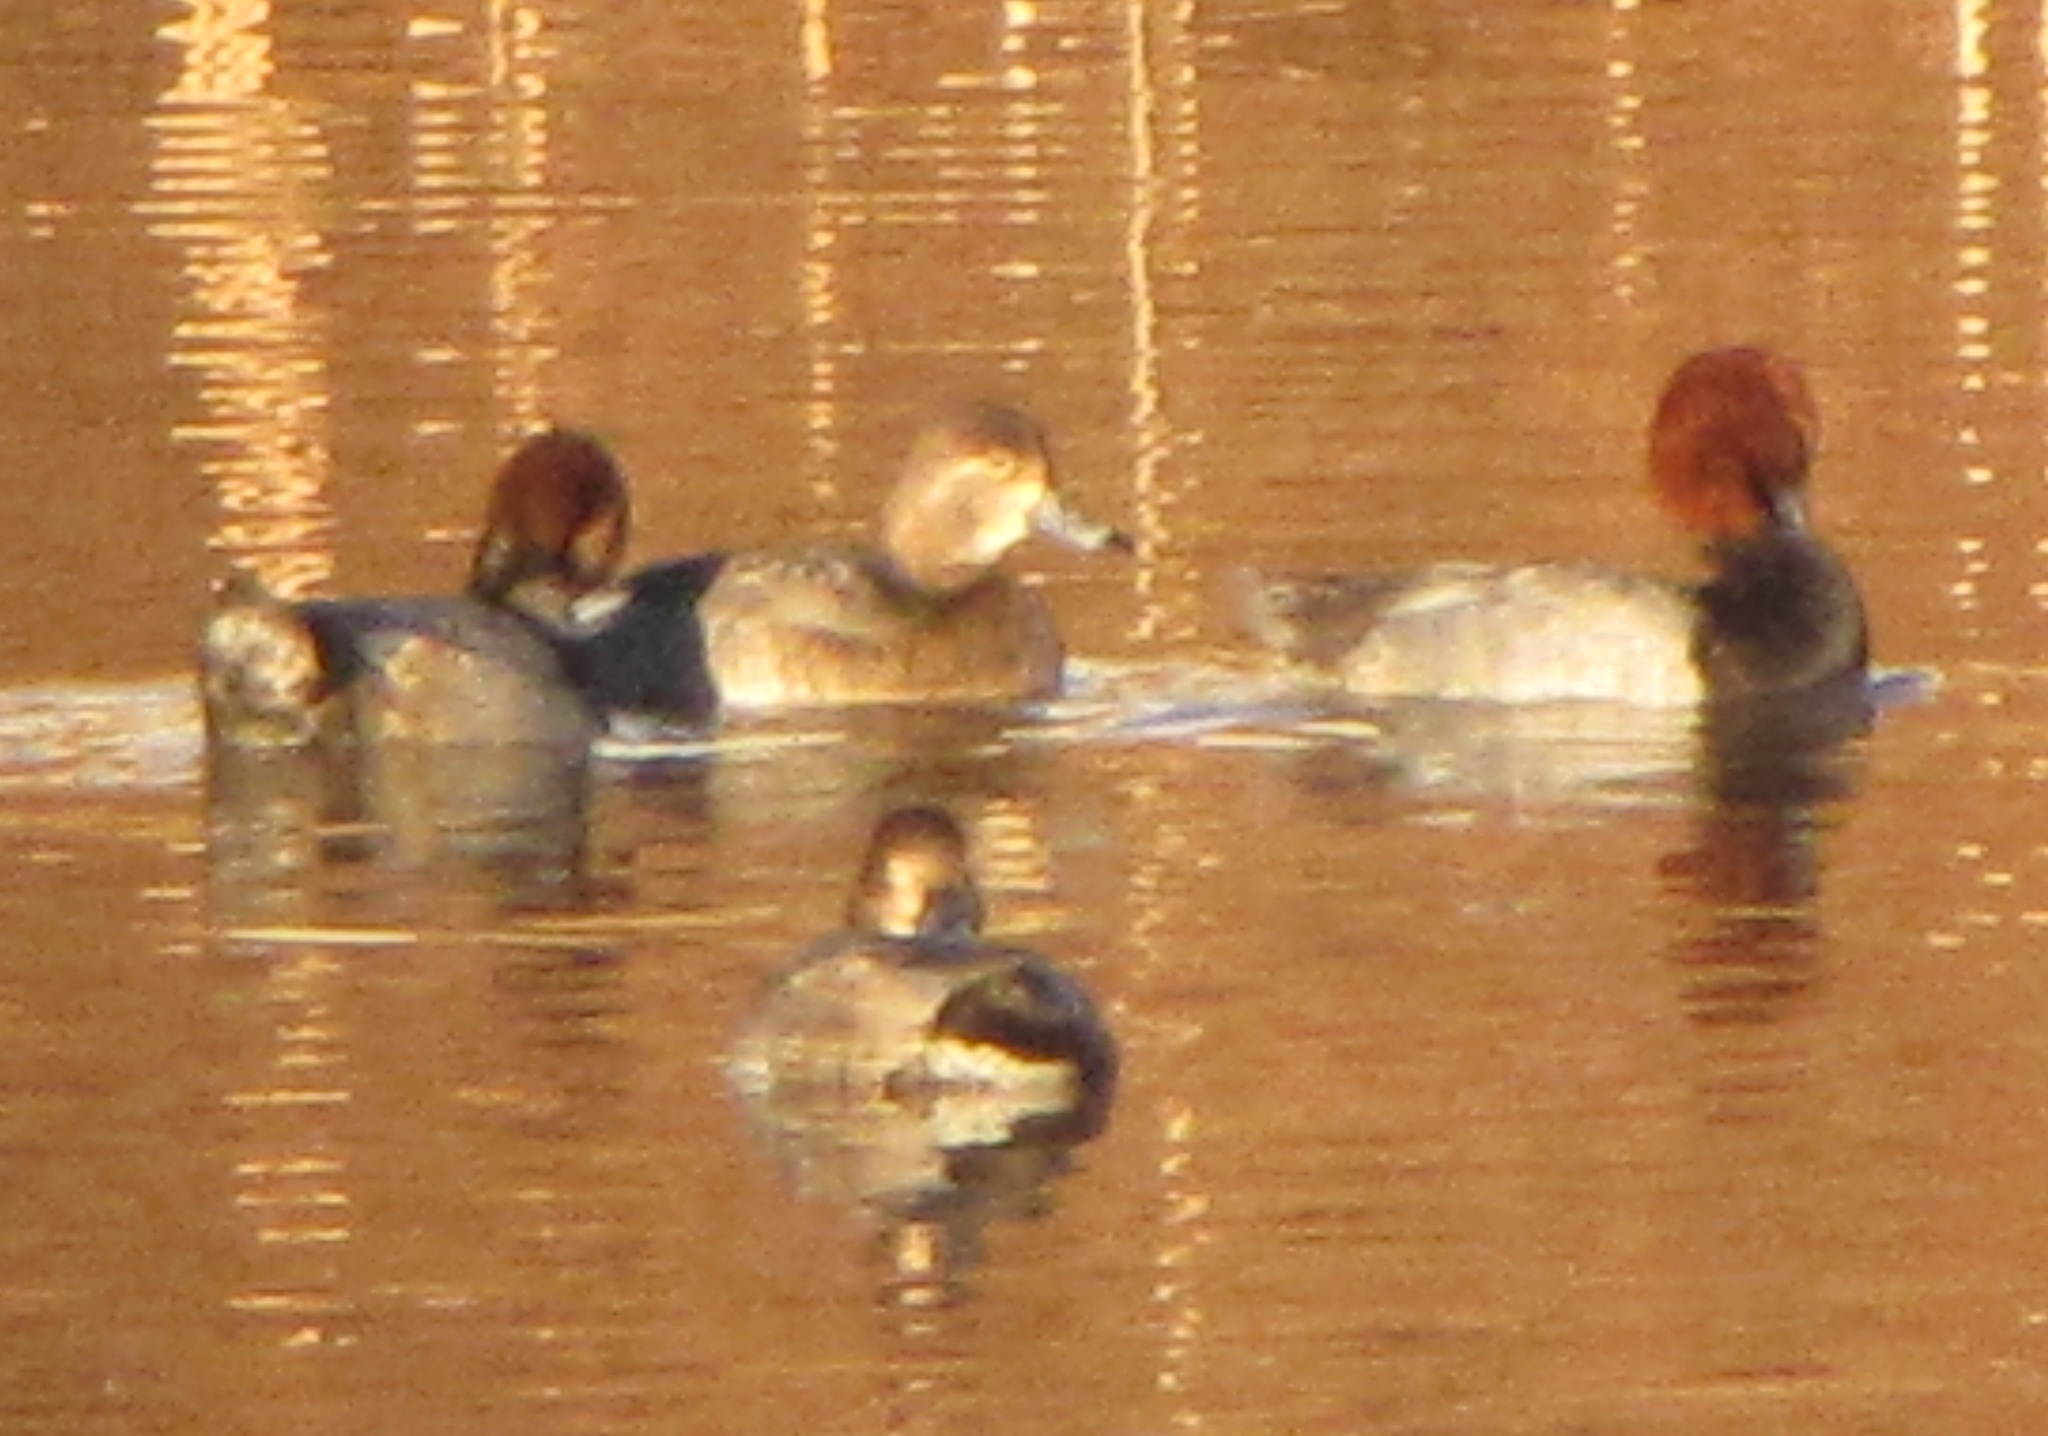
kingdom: Animalia
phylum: Chordata
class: Aves
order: Anseriformes
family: Anatidae
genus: Aythya
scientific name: Aythya americana
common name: Redhead
